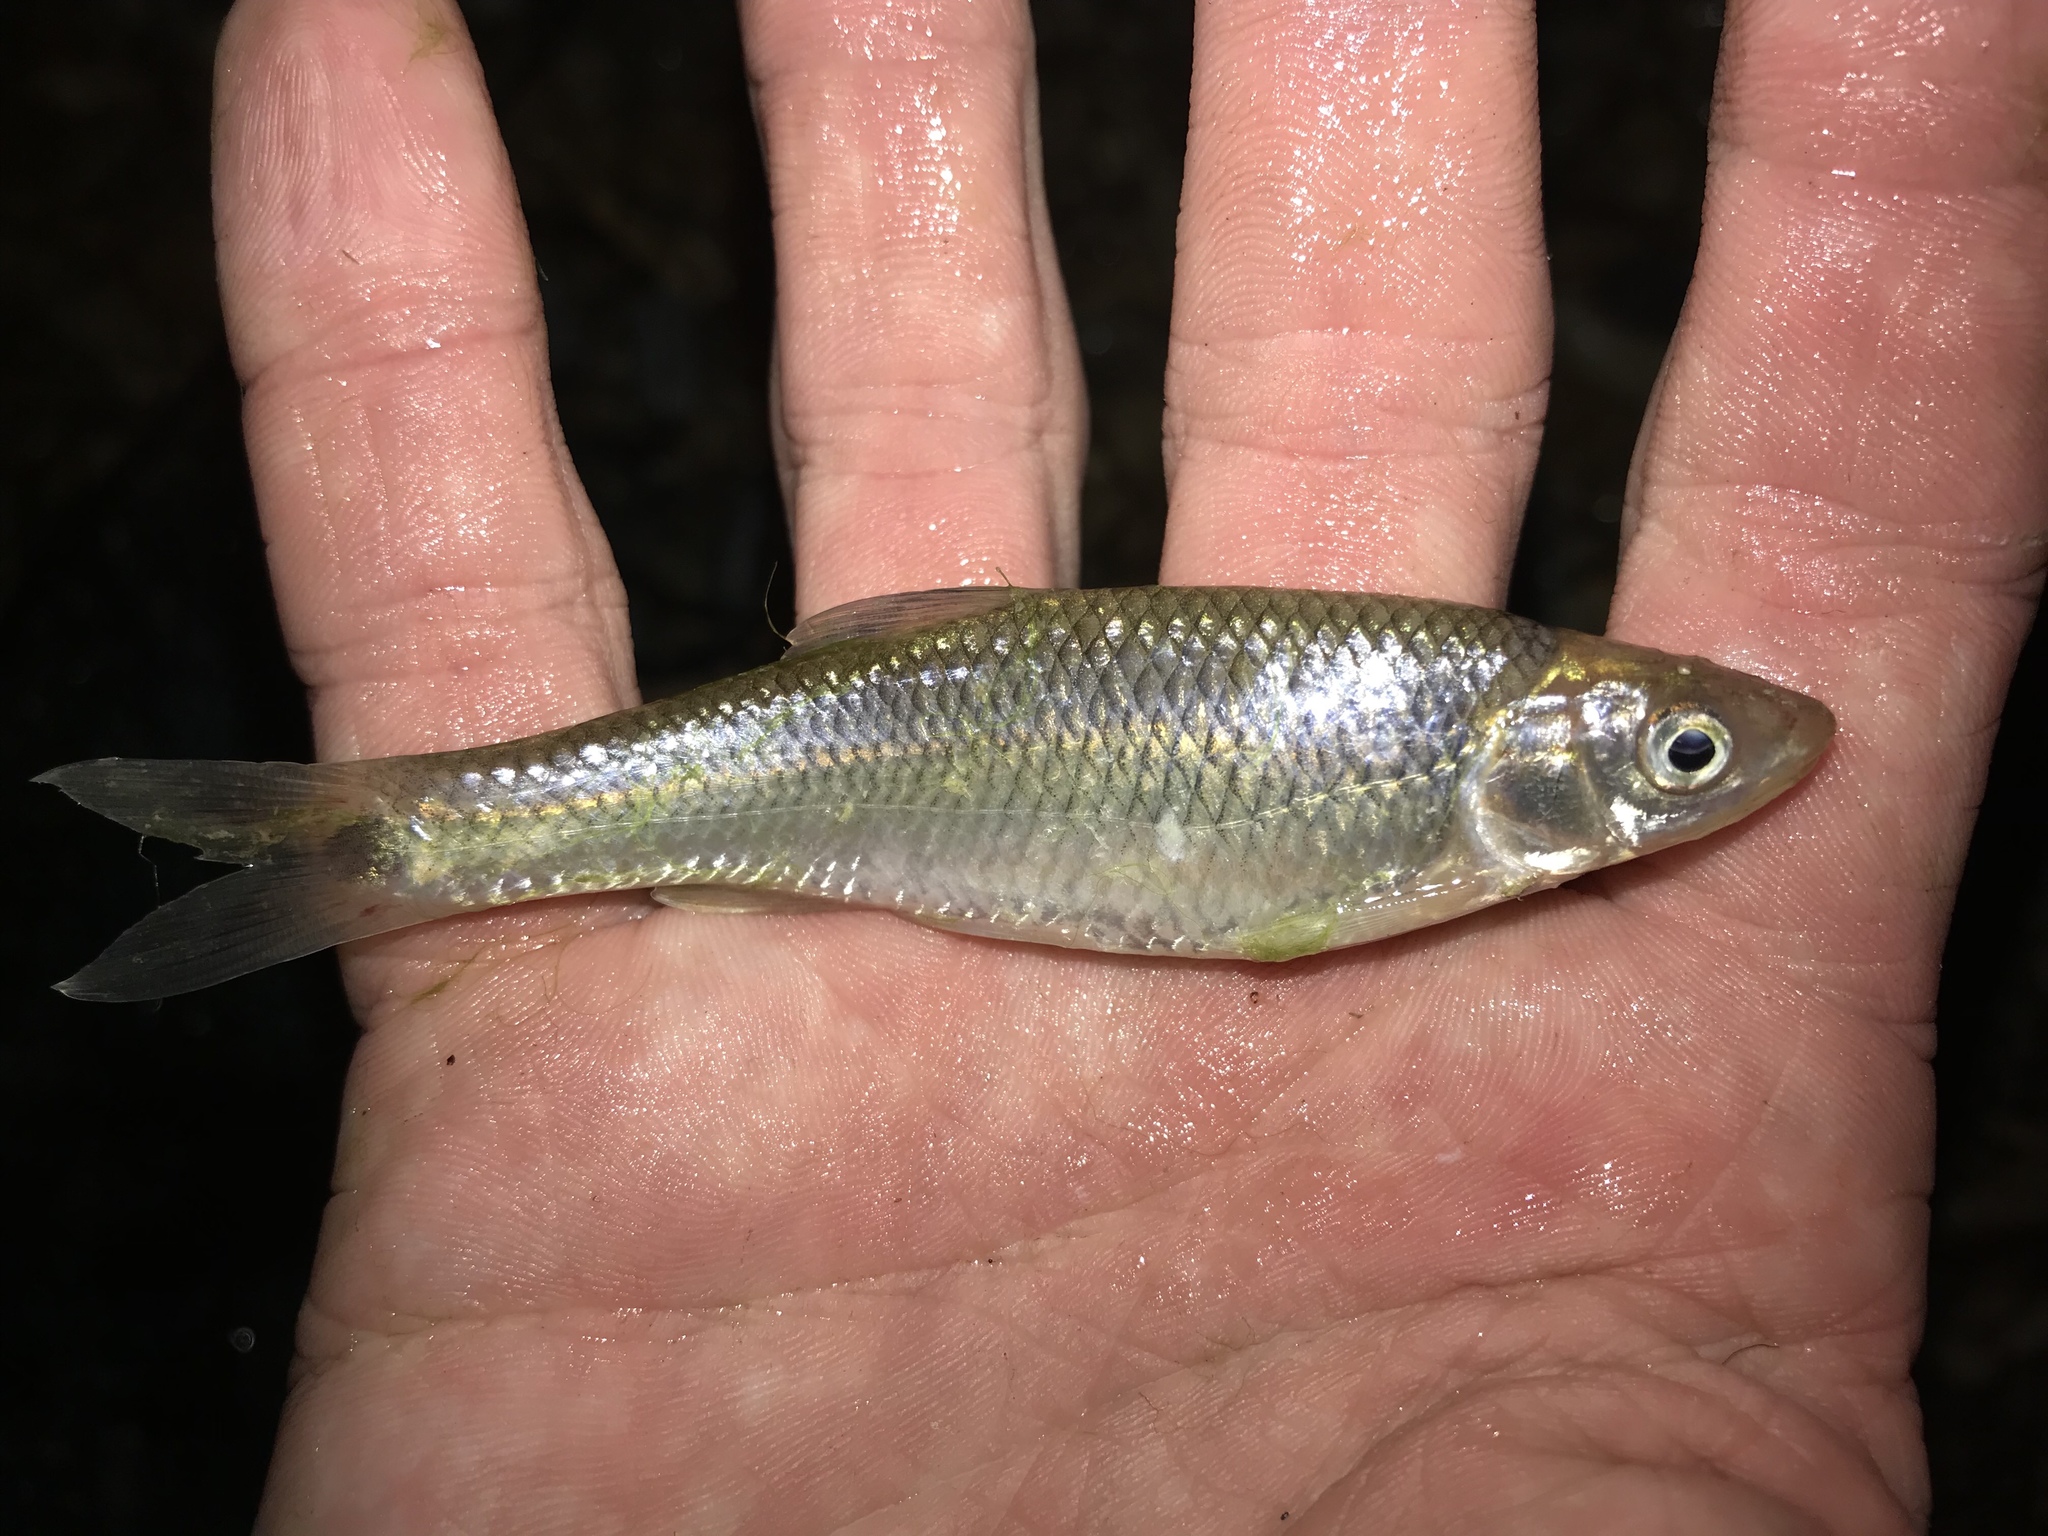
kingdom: Animalia
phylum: Chordata
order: Cypriniformes
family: Cyprinidae
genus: Cyprinella
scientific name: Cyprinella venusta
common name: Blacktail shiner
